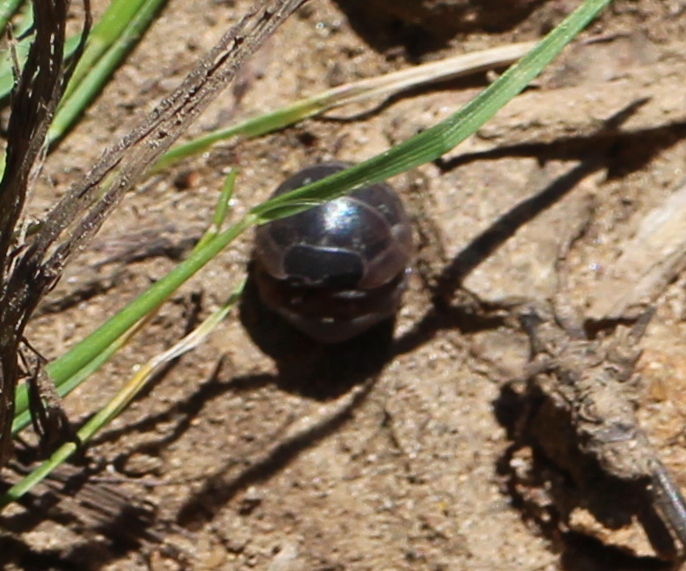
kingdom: Animalia
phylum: Arthropoda
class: Malacostraca
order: Isopoda
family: Armadillidiidae
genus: Armadillidium
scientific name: Armadillidium vulgare
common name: Common pill woodlouse
